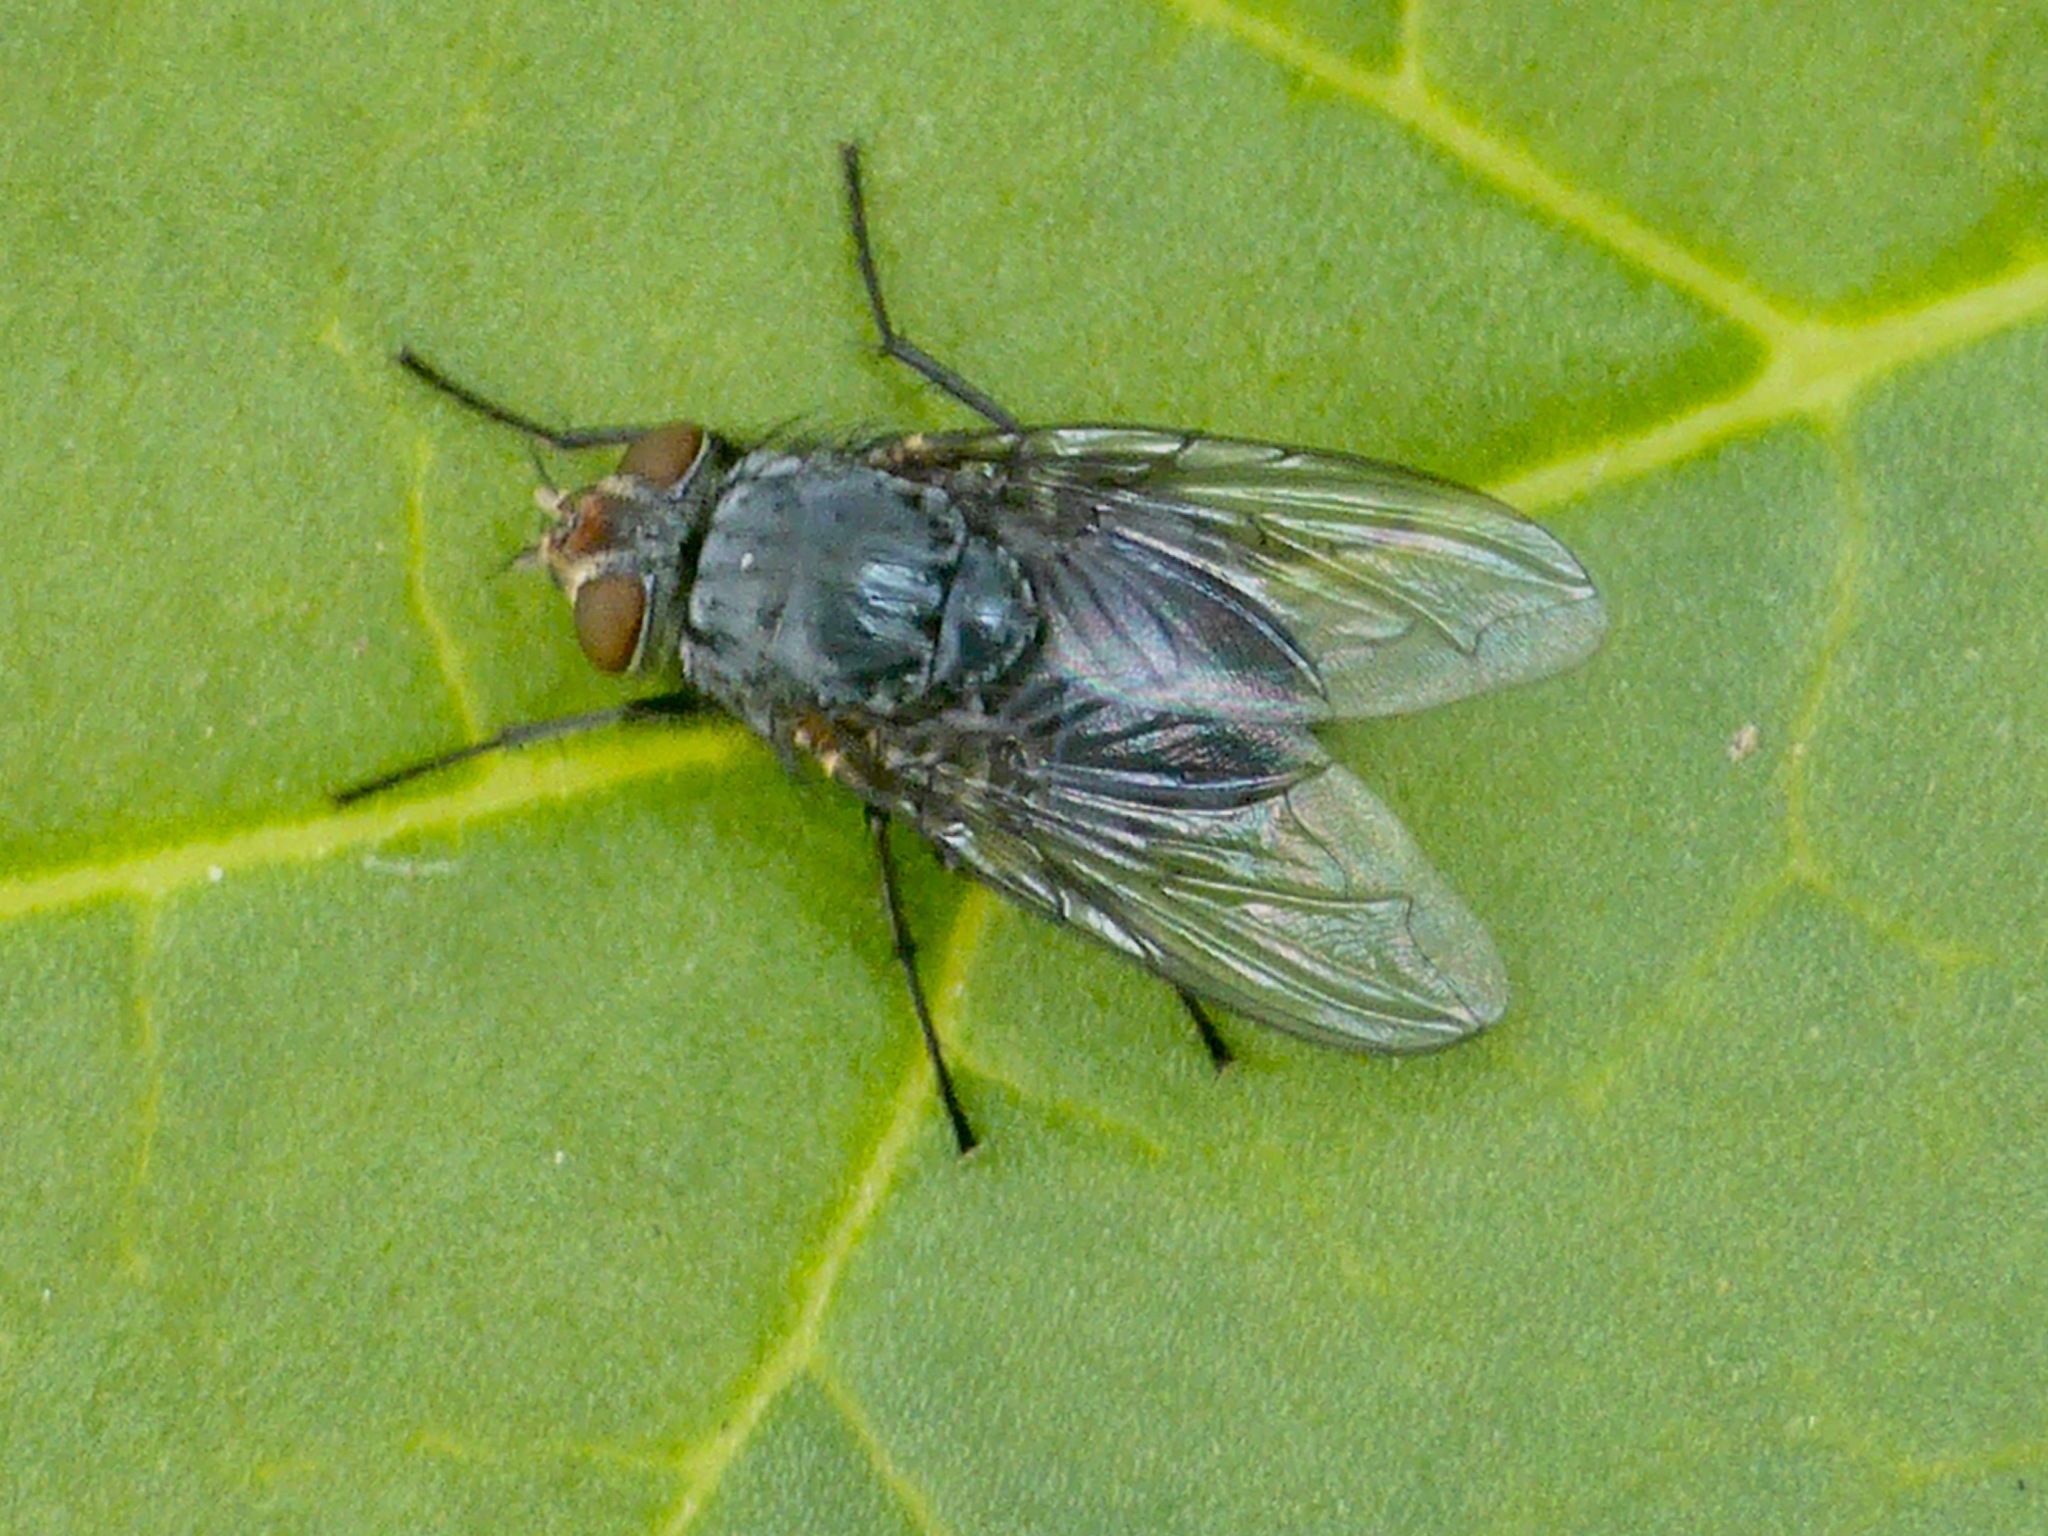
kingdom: Animalia
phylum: Arthropoda
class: Insecta
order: Diptera
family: Calliphoridae
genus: Calliphora
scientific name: Calliphora vicina
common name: Common blow flie
